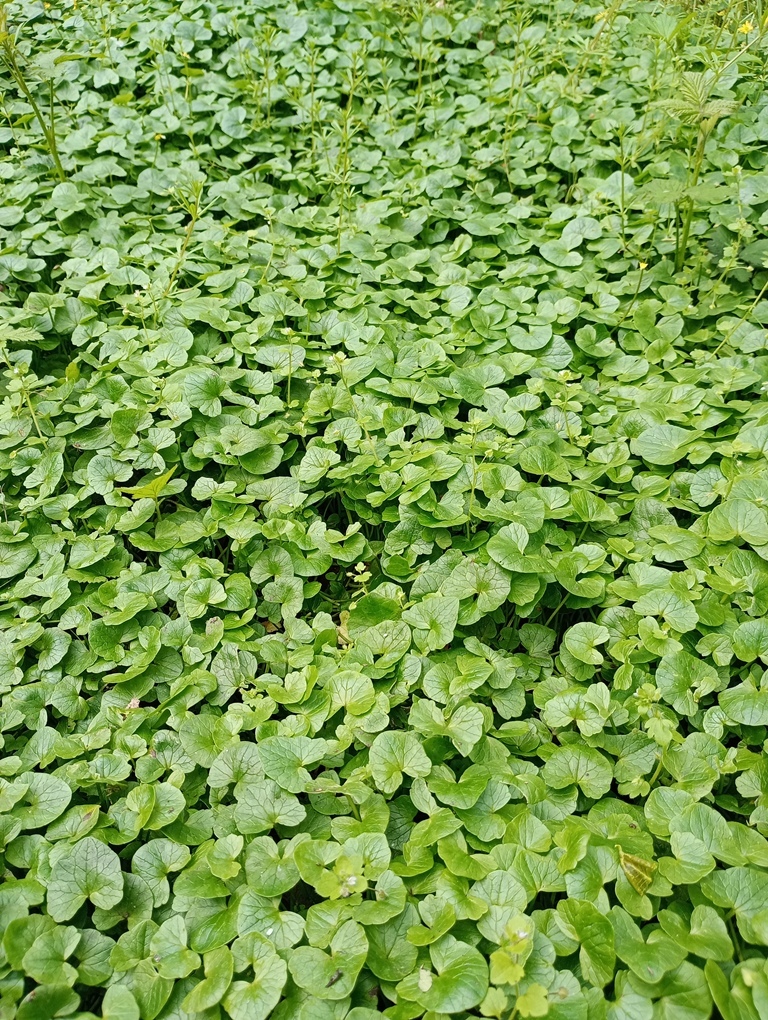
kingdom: Plantae
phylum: Tracheophyta
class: Magnoliopsida
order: Ranunculales
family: Ranunculaceae
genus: Ficaria
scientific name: Ficaria verna
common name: Lesser celandine
